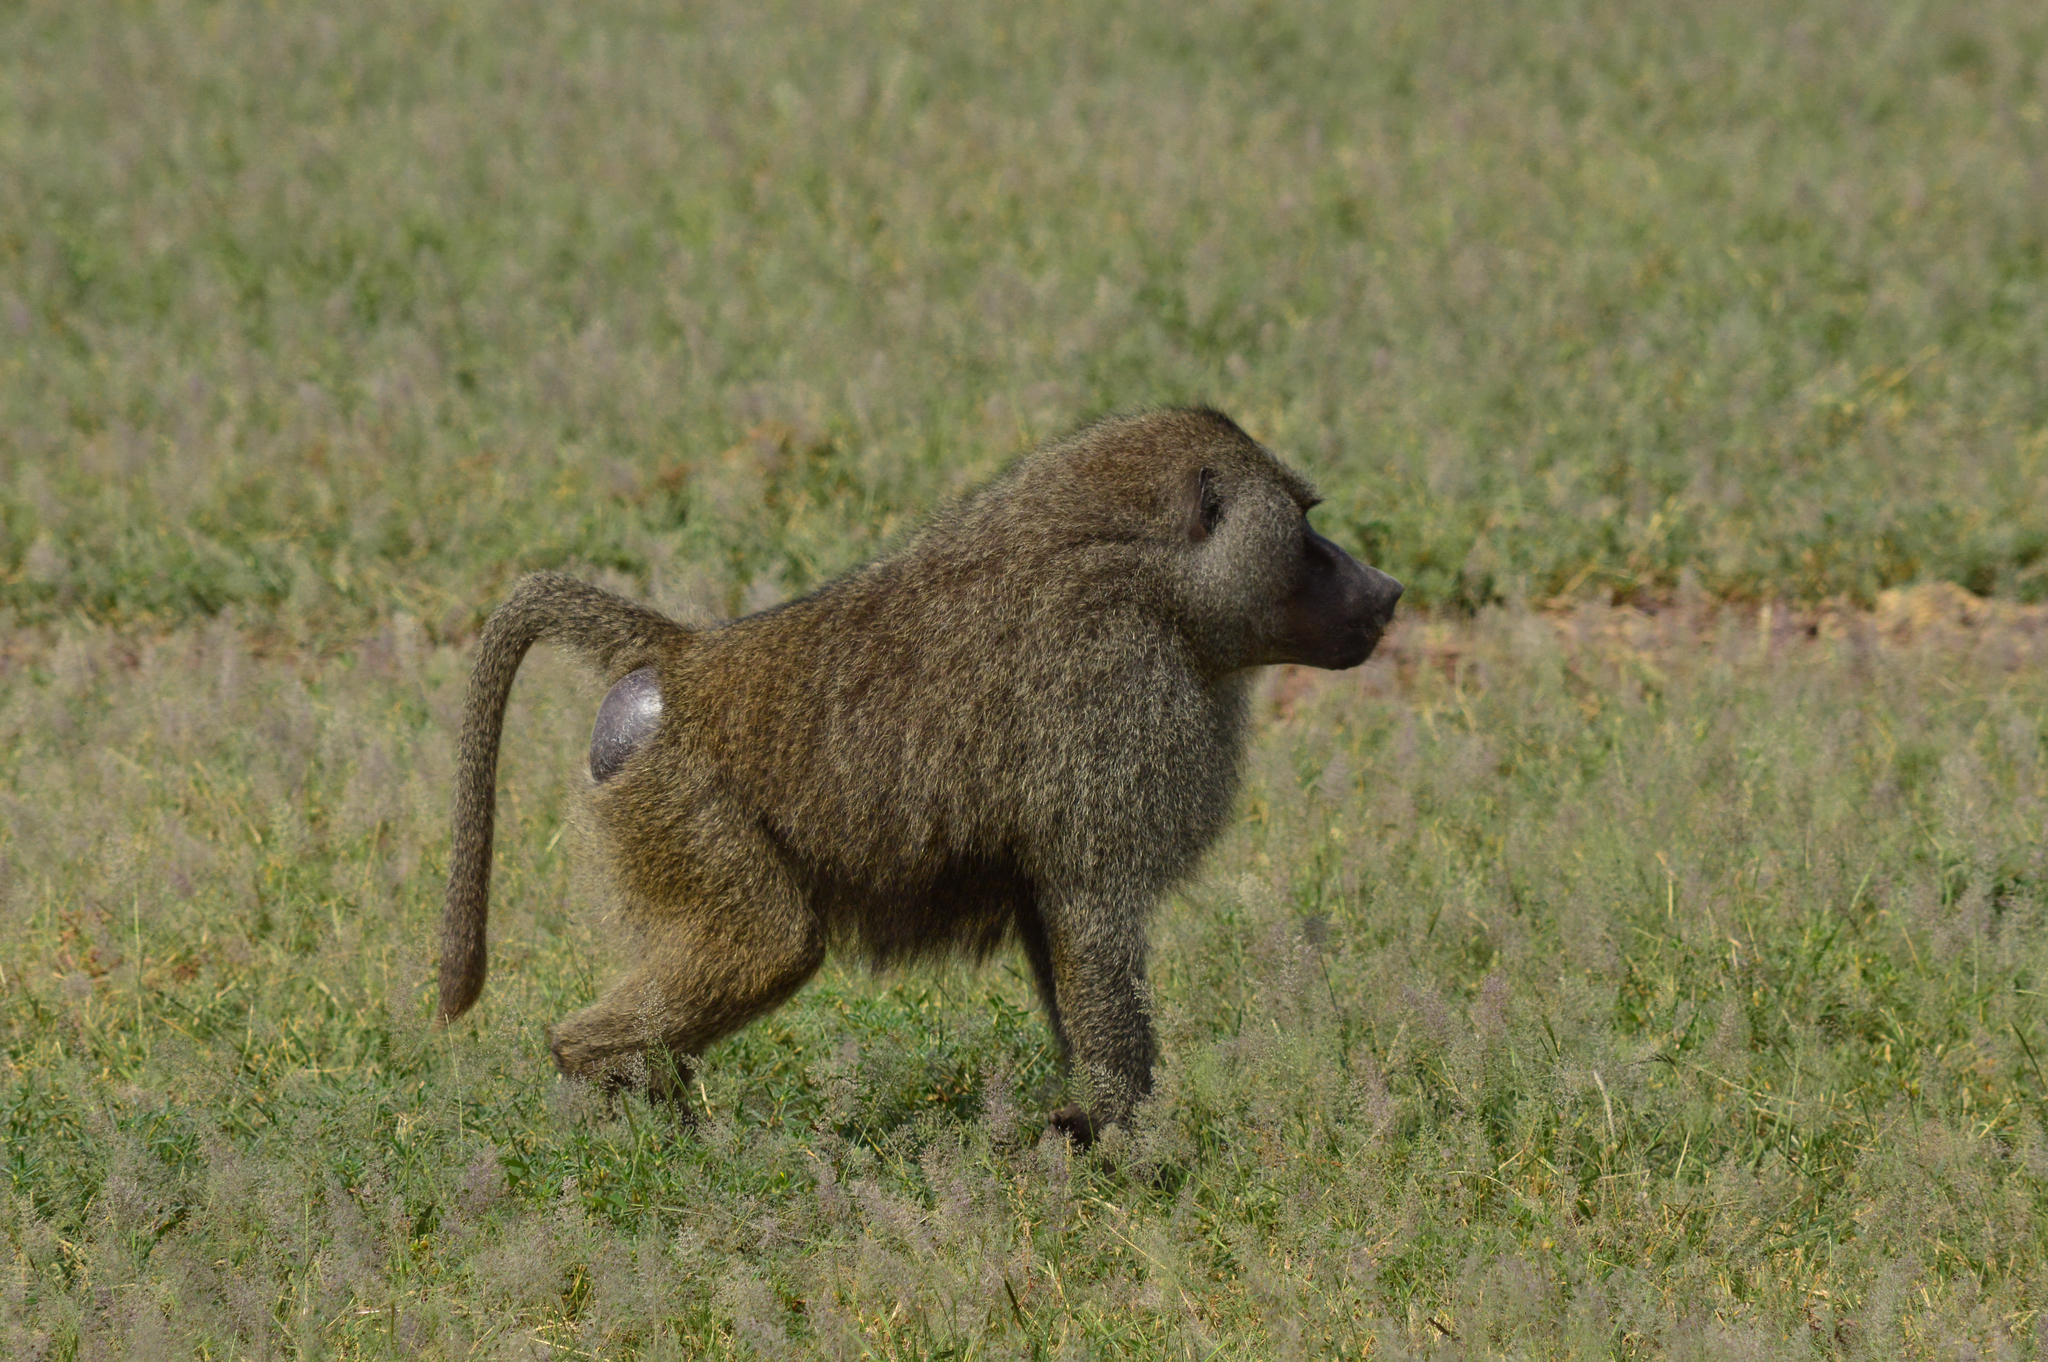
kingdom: Animalia
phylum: Chordata
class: Mammalia
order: Primates
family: Cercopithecidae
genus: Papio
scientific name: Papio anubis
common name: Olive baboon
